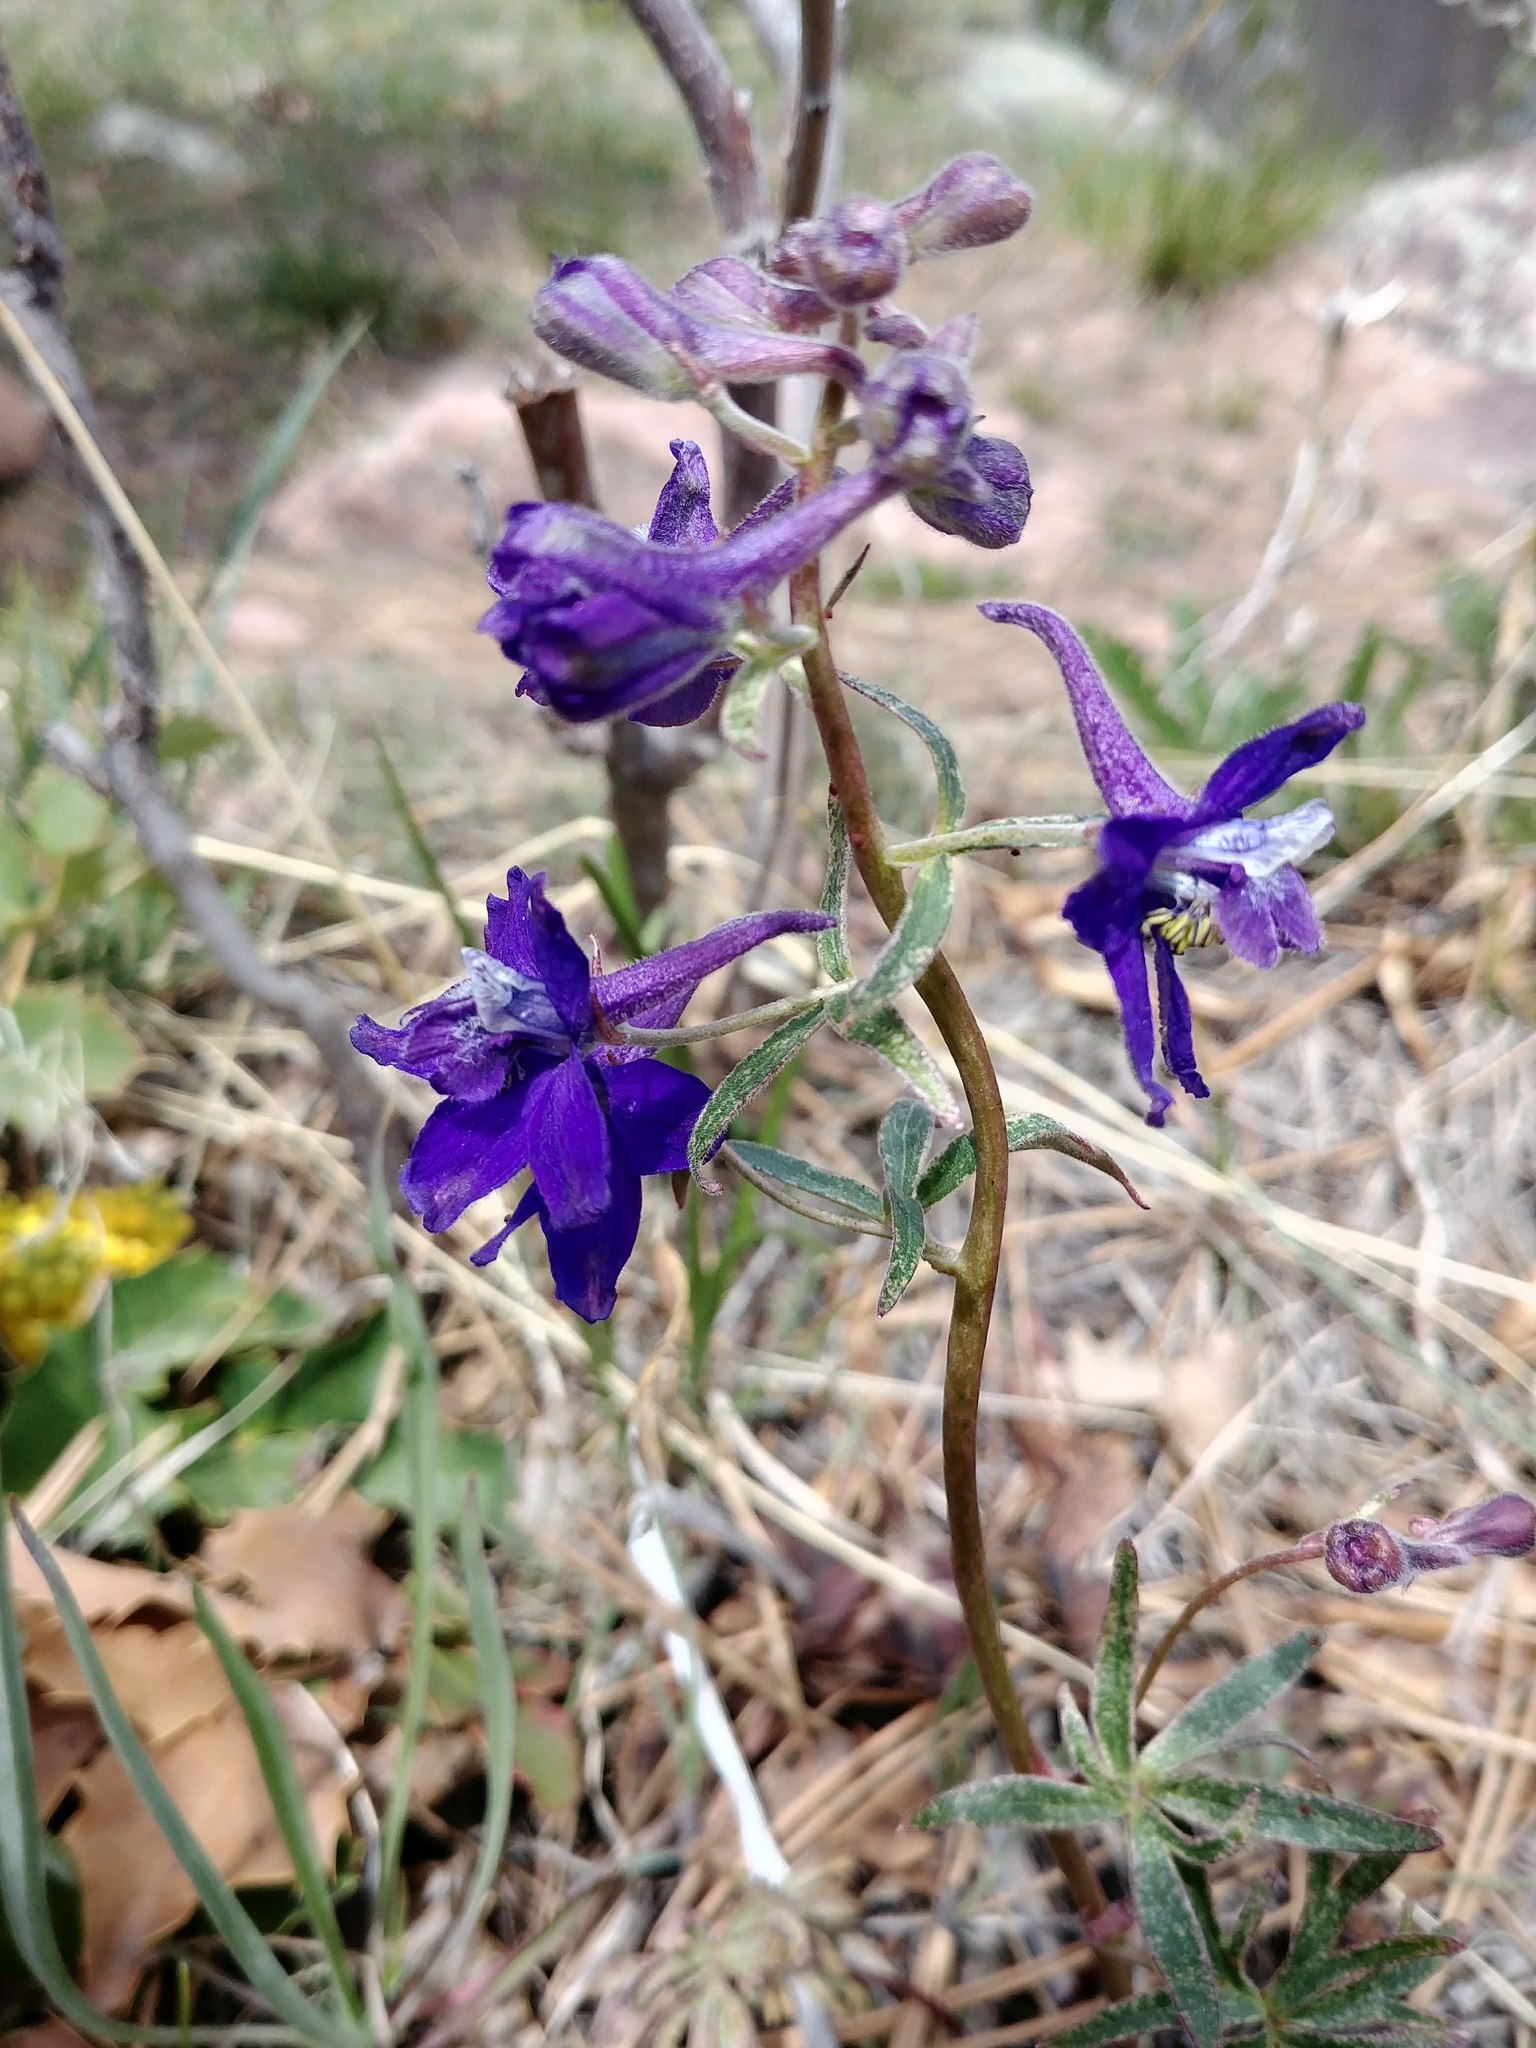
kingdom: Plantae
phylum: Tracheophyta
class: Magnoliopsida
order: Ranunculales
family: Ranunculaceae
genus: Delphinium
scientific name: Delphinium nuttallianum
